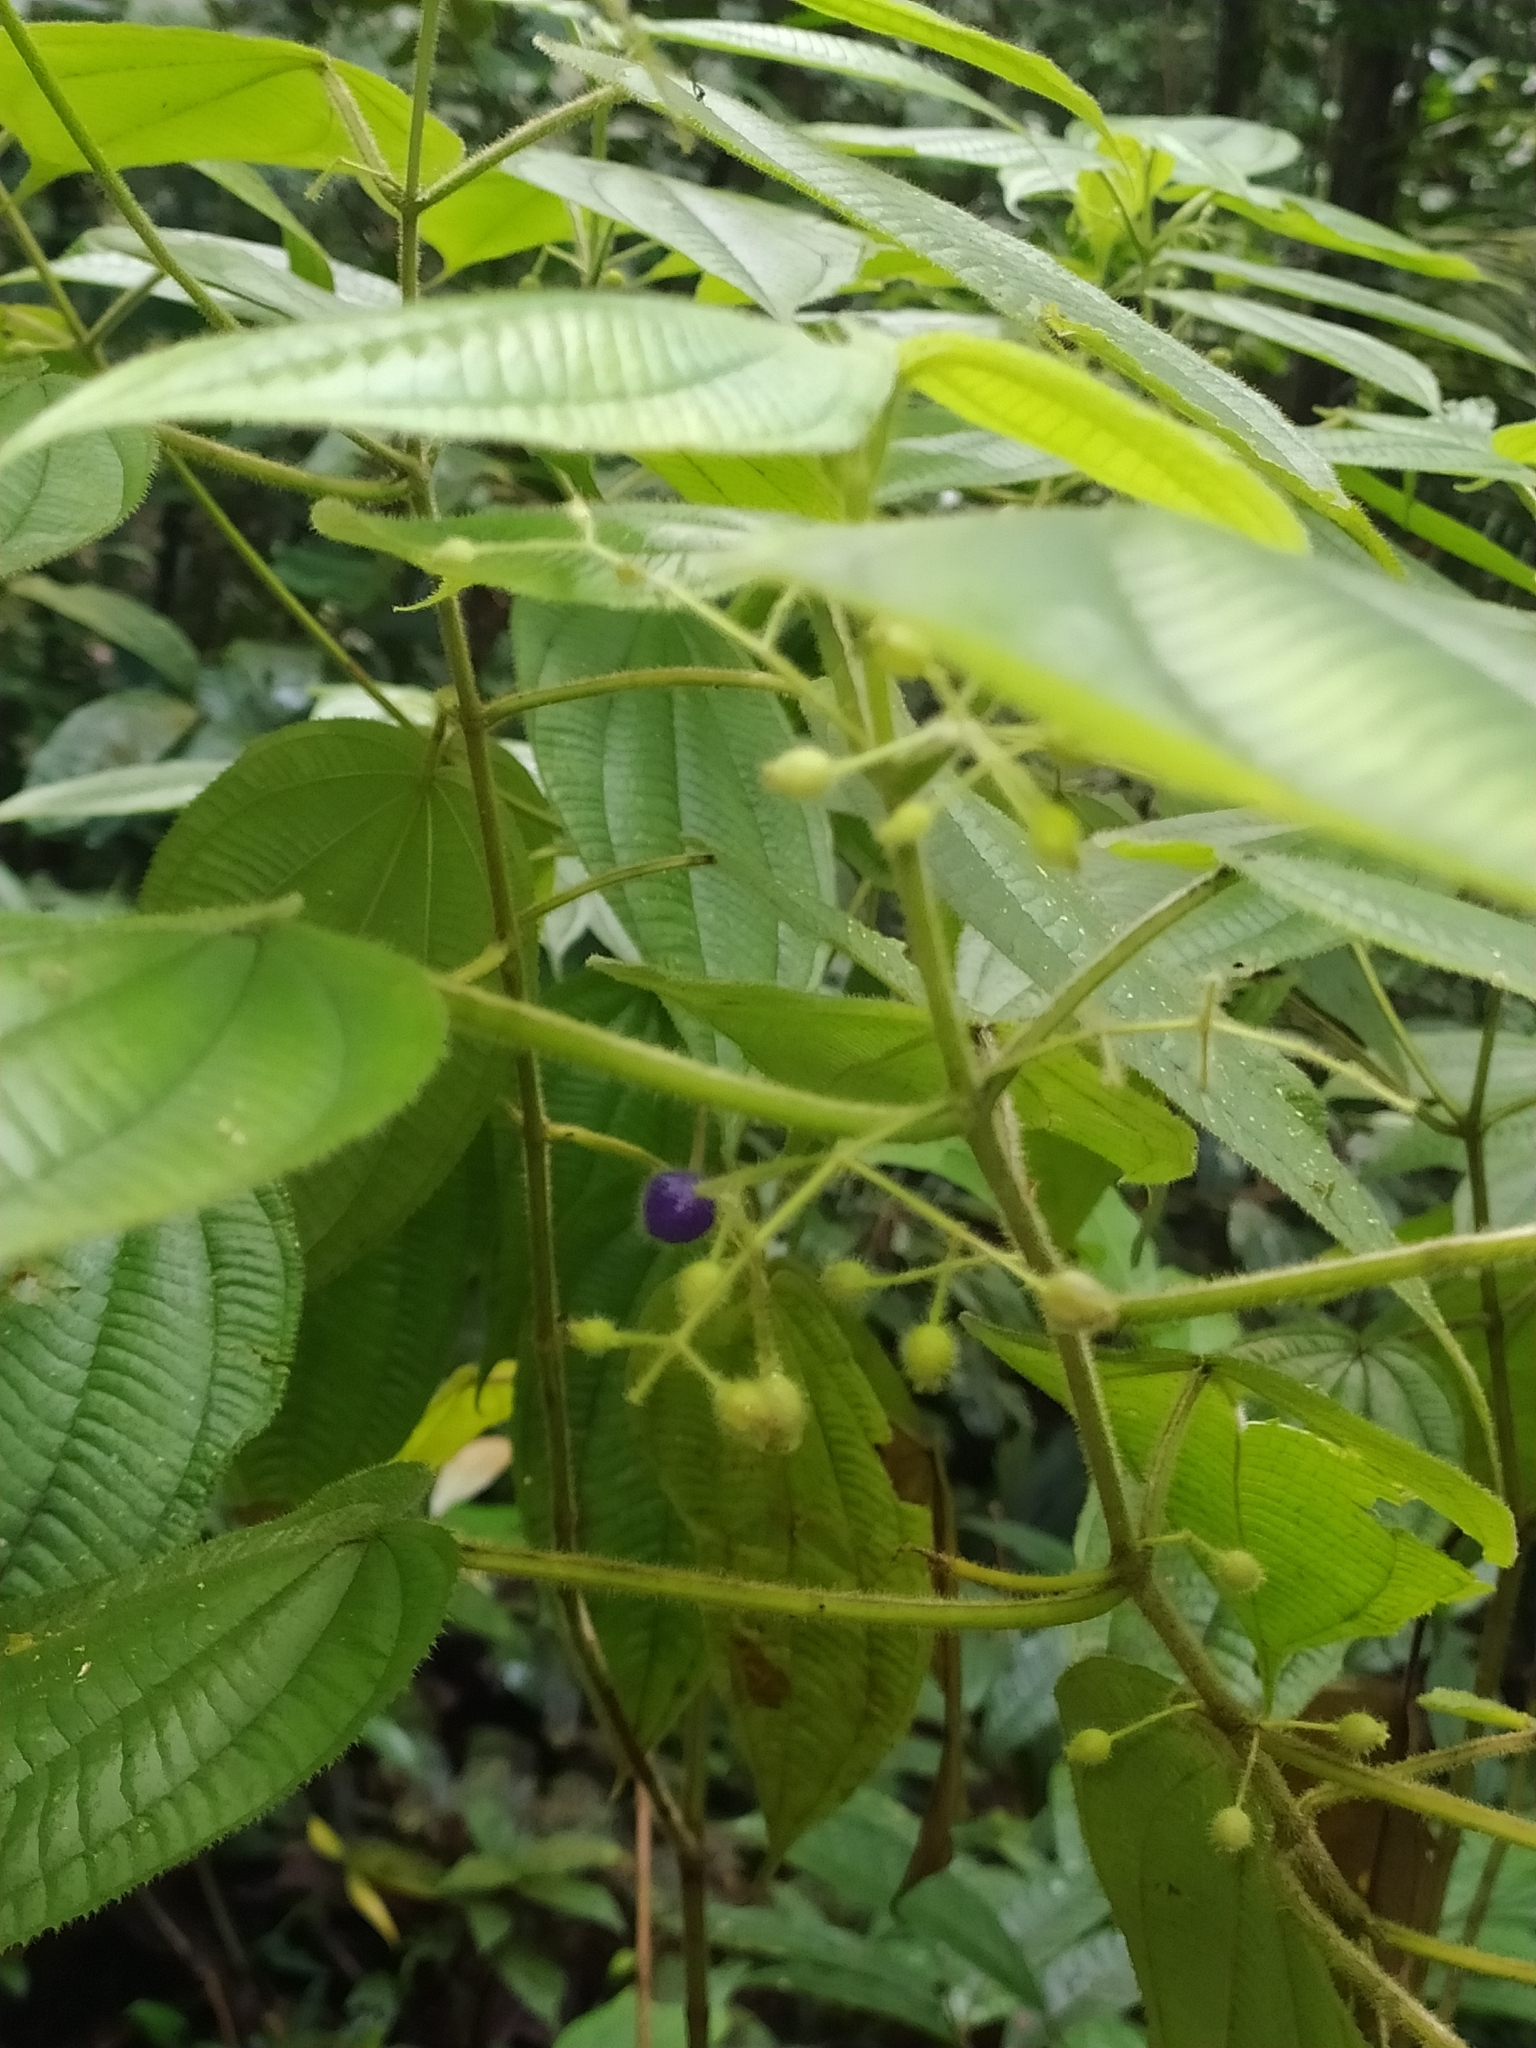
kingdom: Plantae
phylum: Tracheophyta
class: Magnoliopsida
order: Myrtales
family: Melastomataceae
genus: Miconia
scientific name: Miconia silvicola
